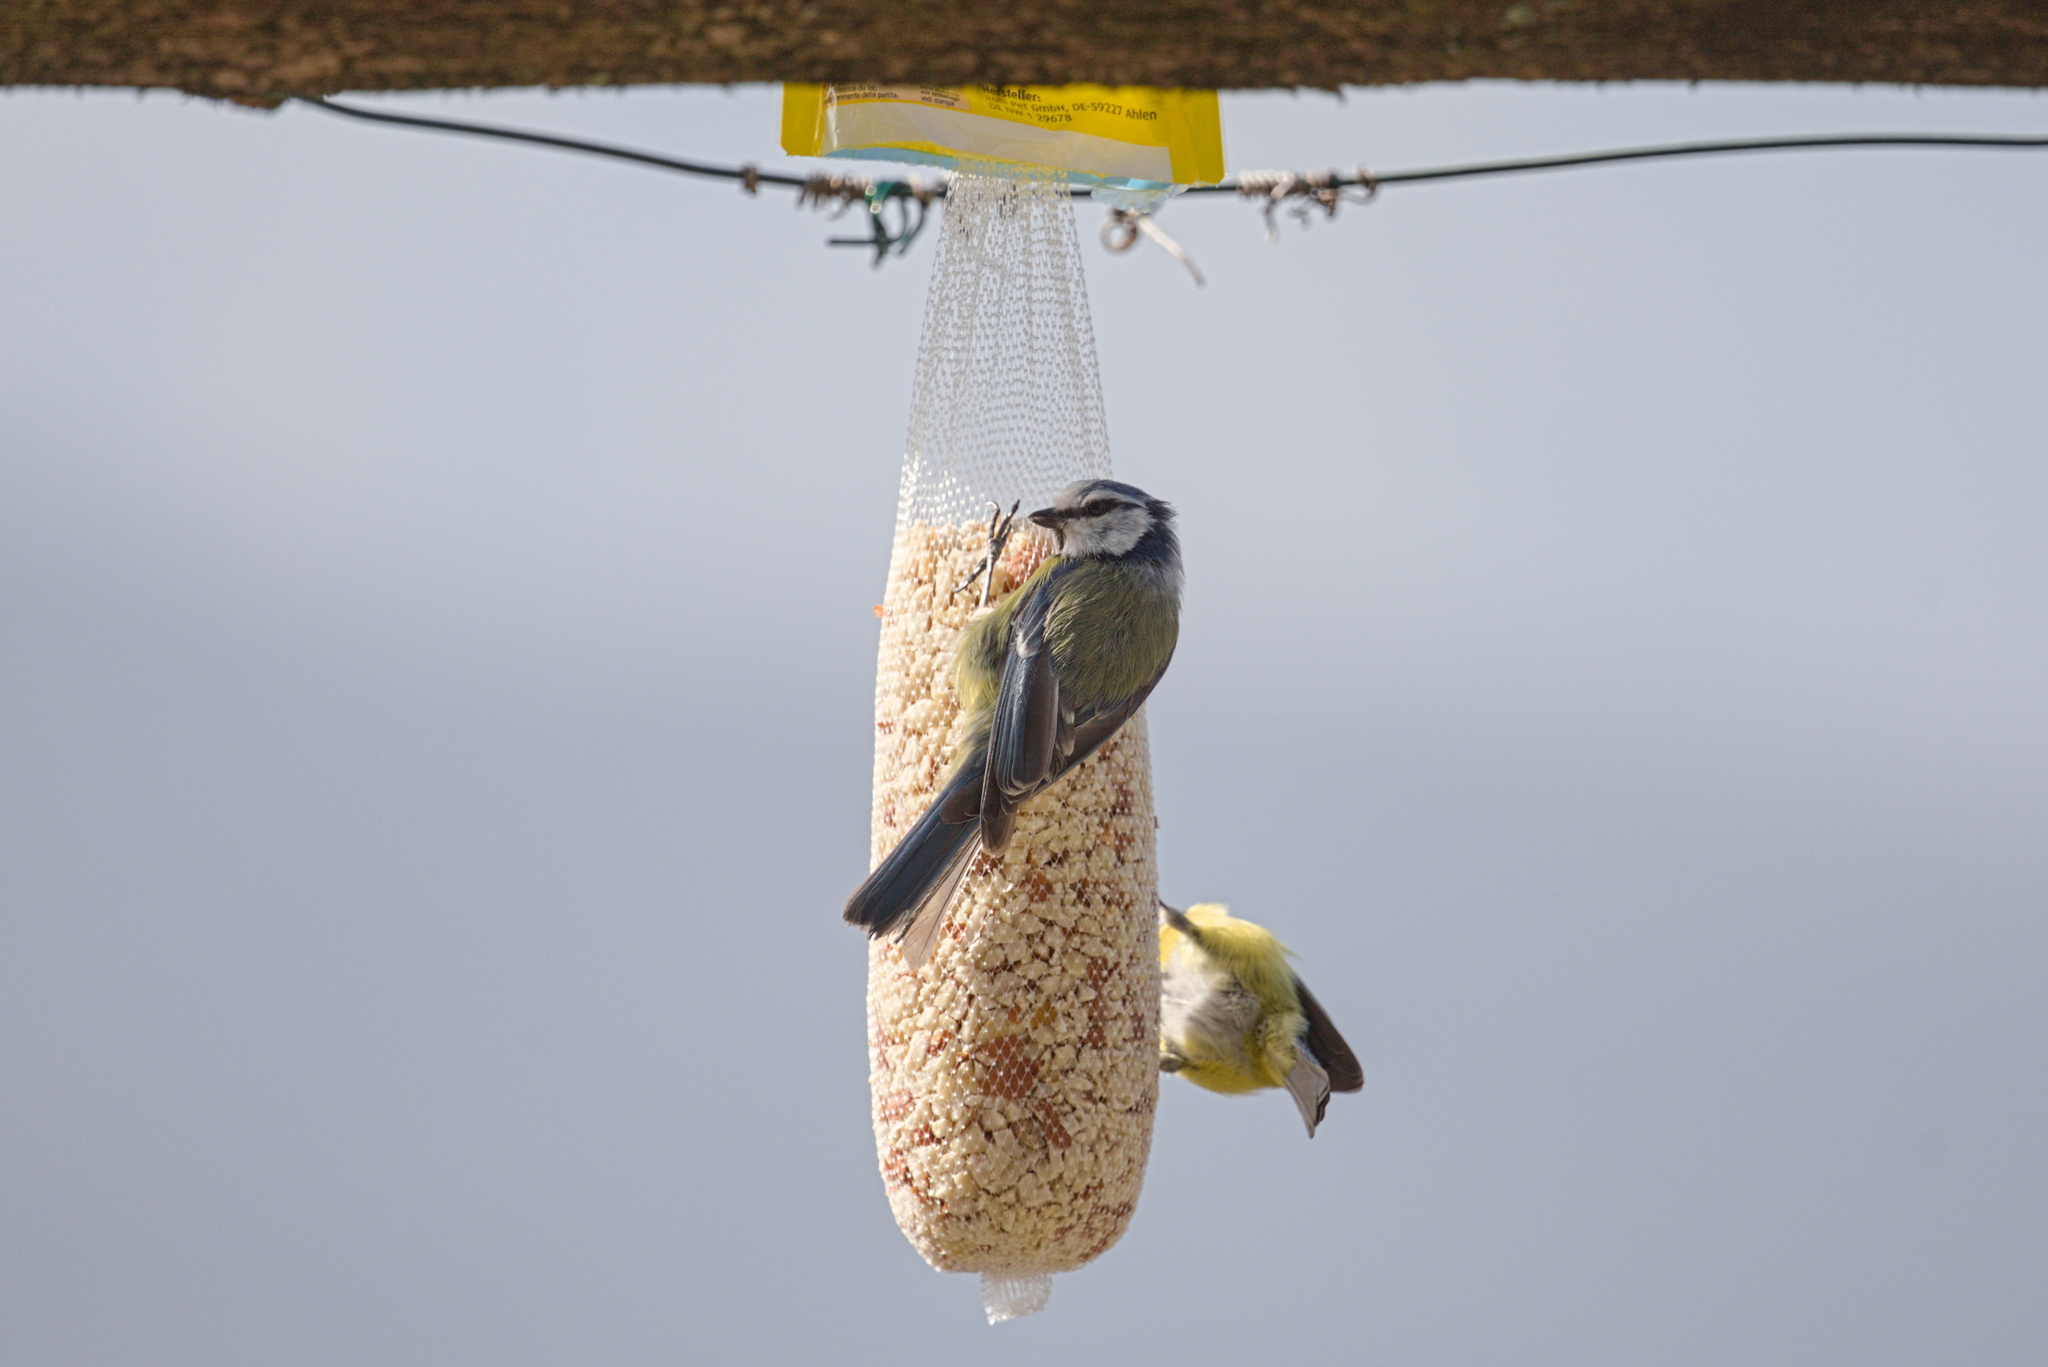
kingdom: Animalia
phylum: Chordata
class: Aves
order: Passeriformes
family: Paridae
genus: Cyanistes
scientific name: Cyanistes caeruleus
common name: Eurasian blue tit
